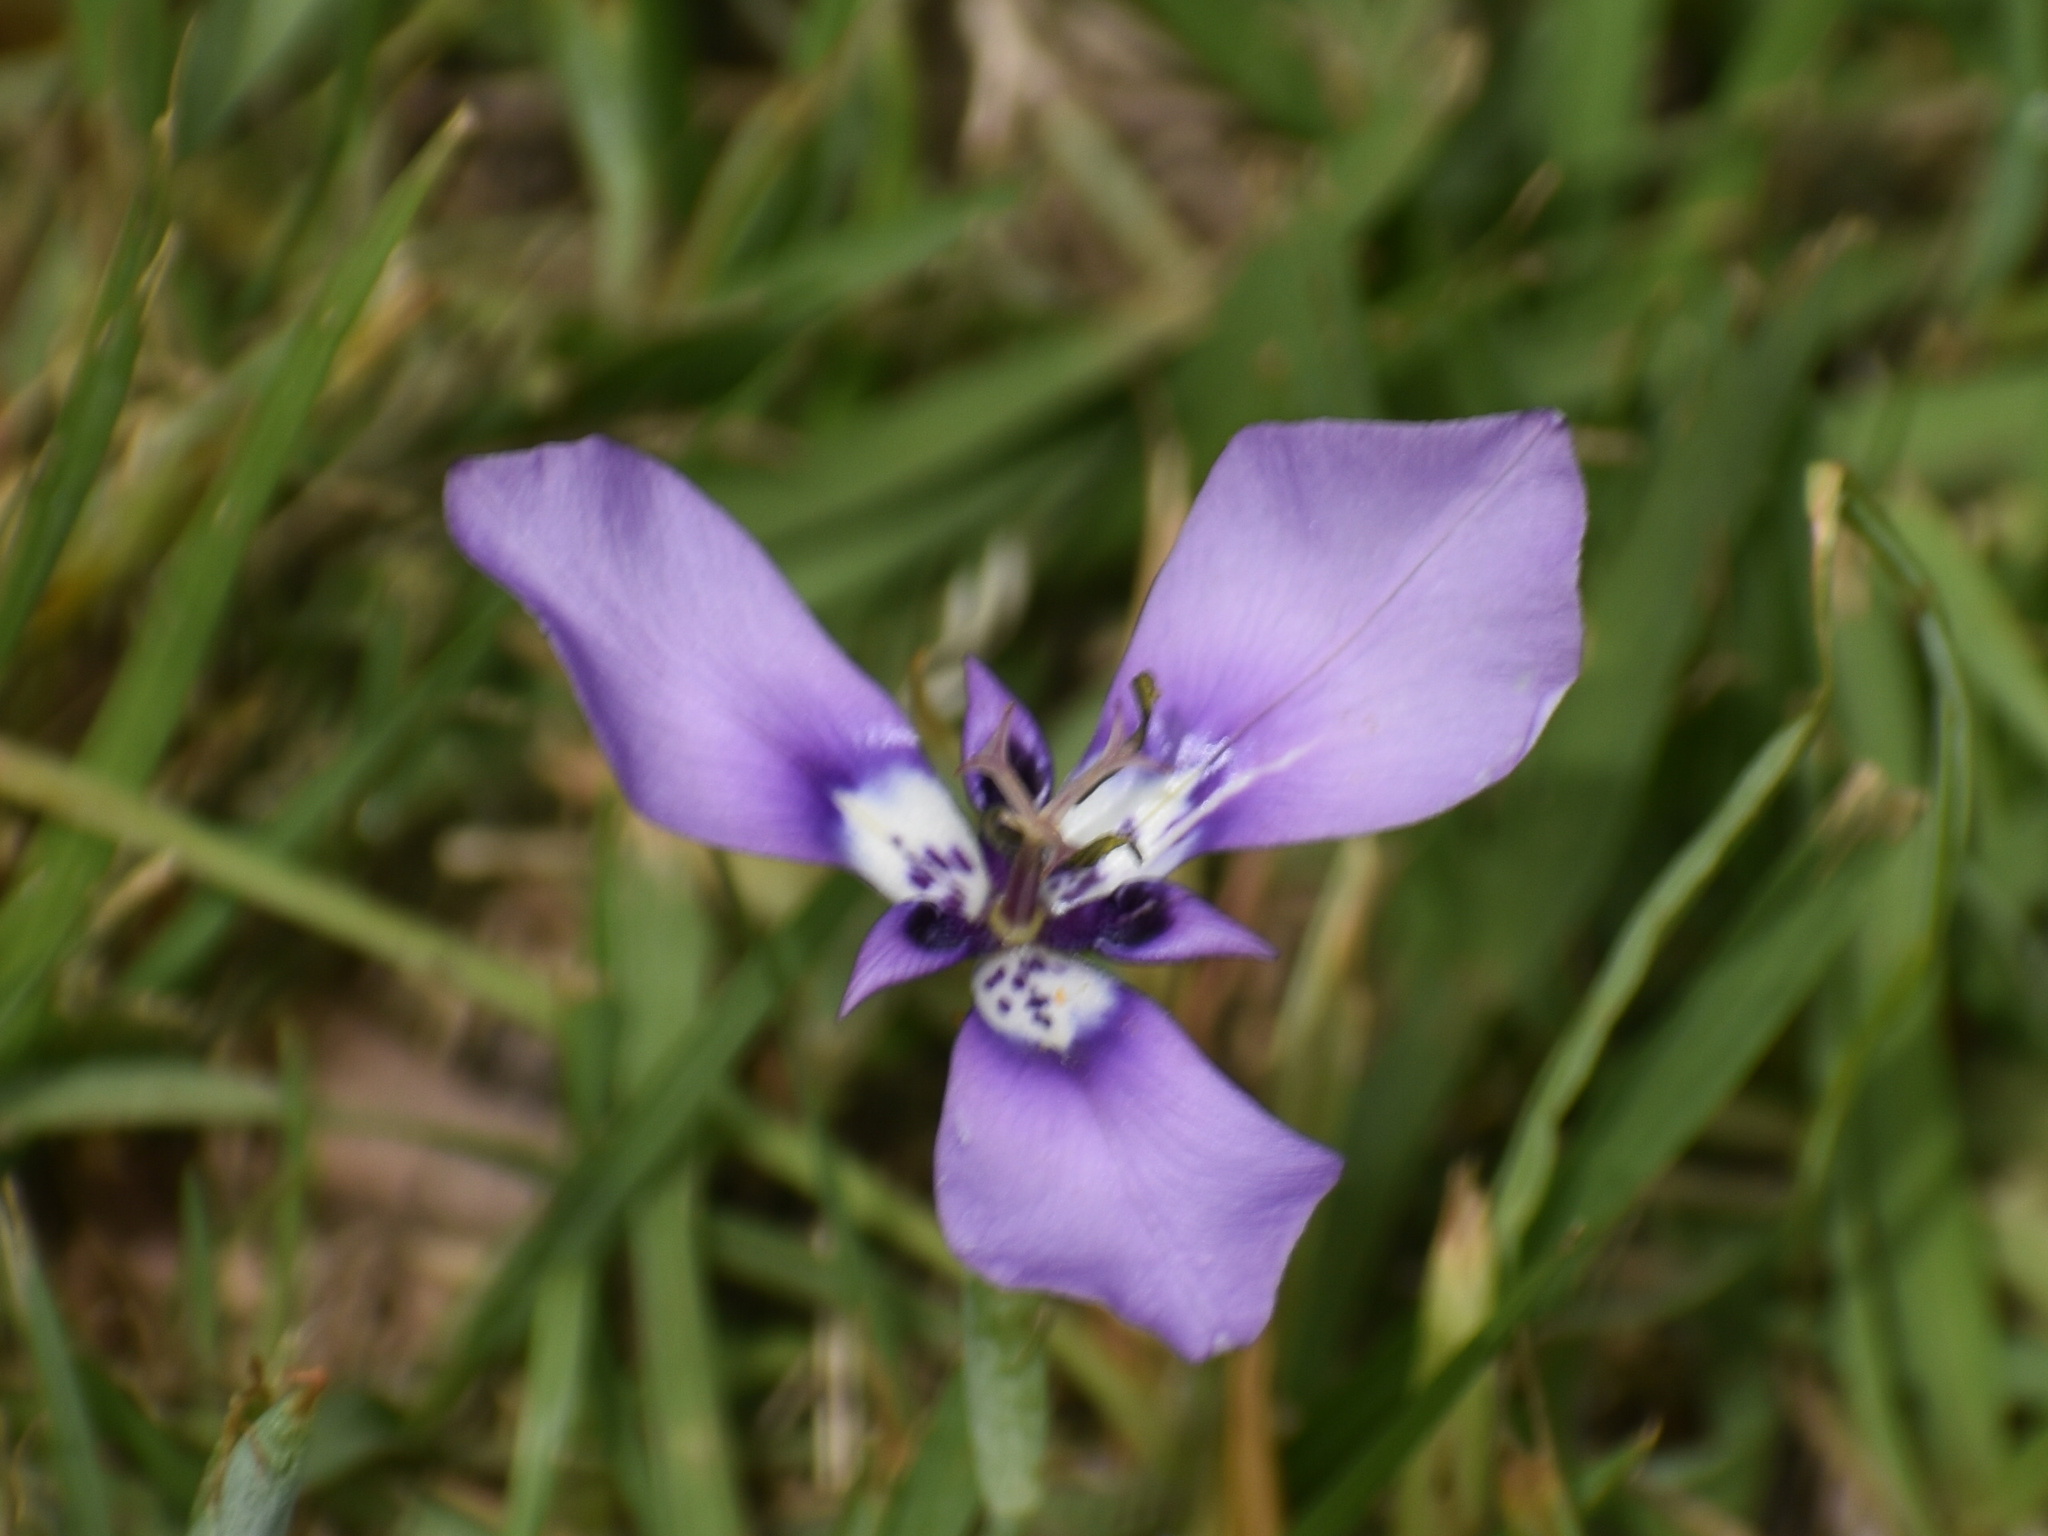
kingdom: Plantae
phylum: Tracheophyta
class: Liliopsida
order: Asparagales
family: Iridaceae
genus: Herbertia
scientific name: Herbertia lahue
